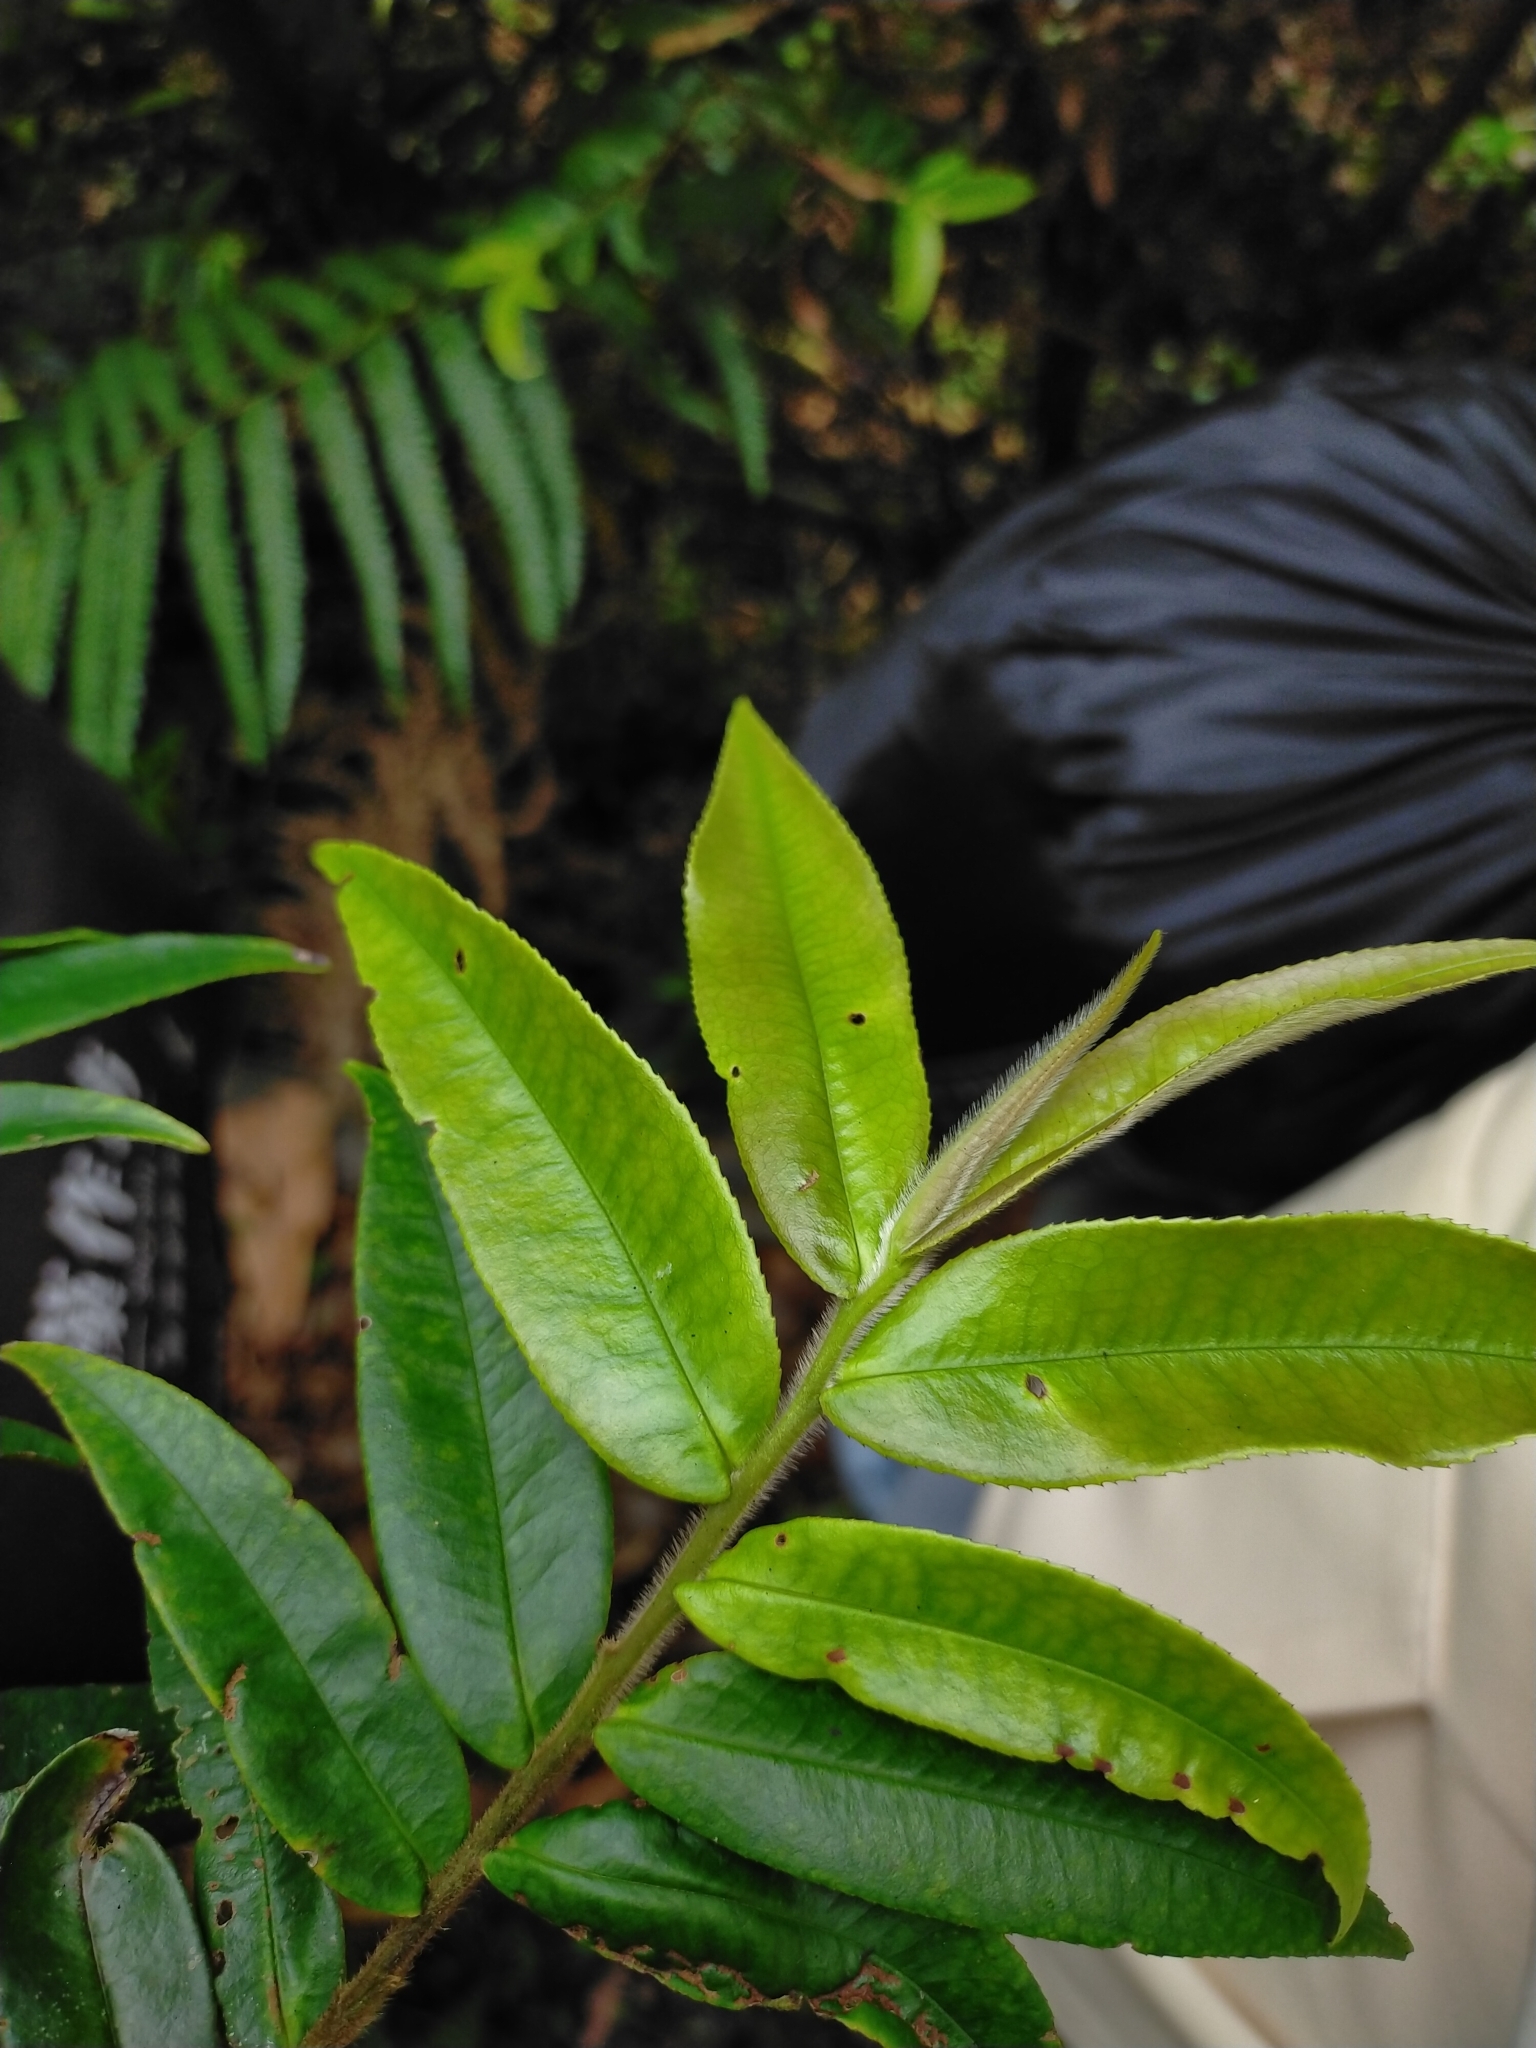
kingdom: Plantae
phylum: Tracheophyta
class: Magnoliopsida
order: Ericales
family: Pentaphylacaceae
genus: Eurya
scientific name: Eurya strigillosa
